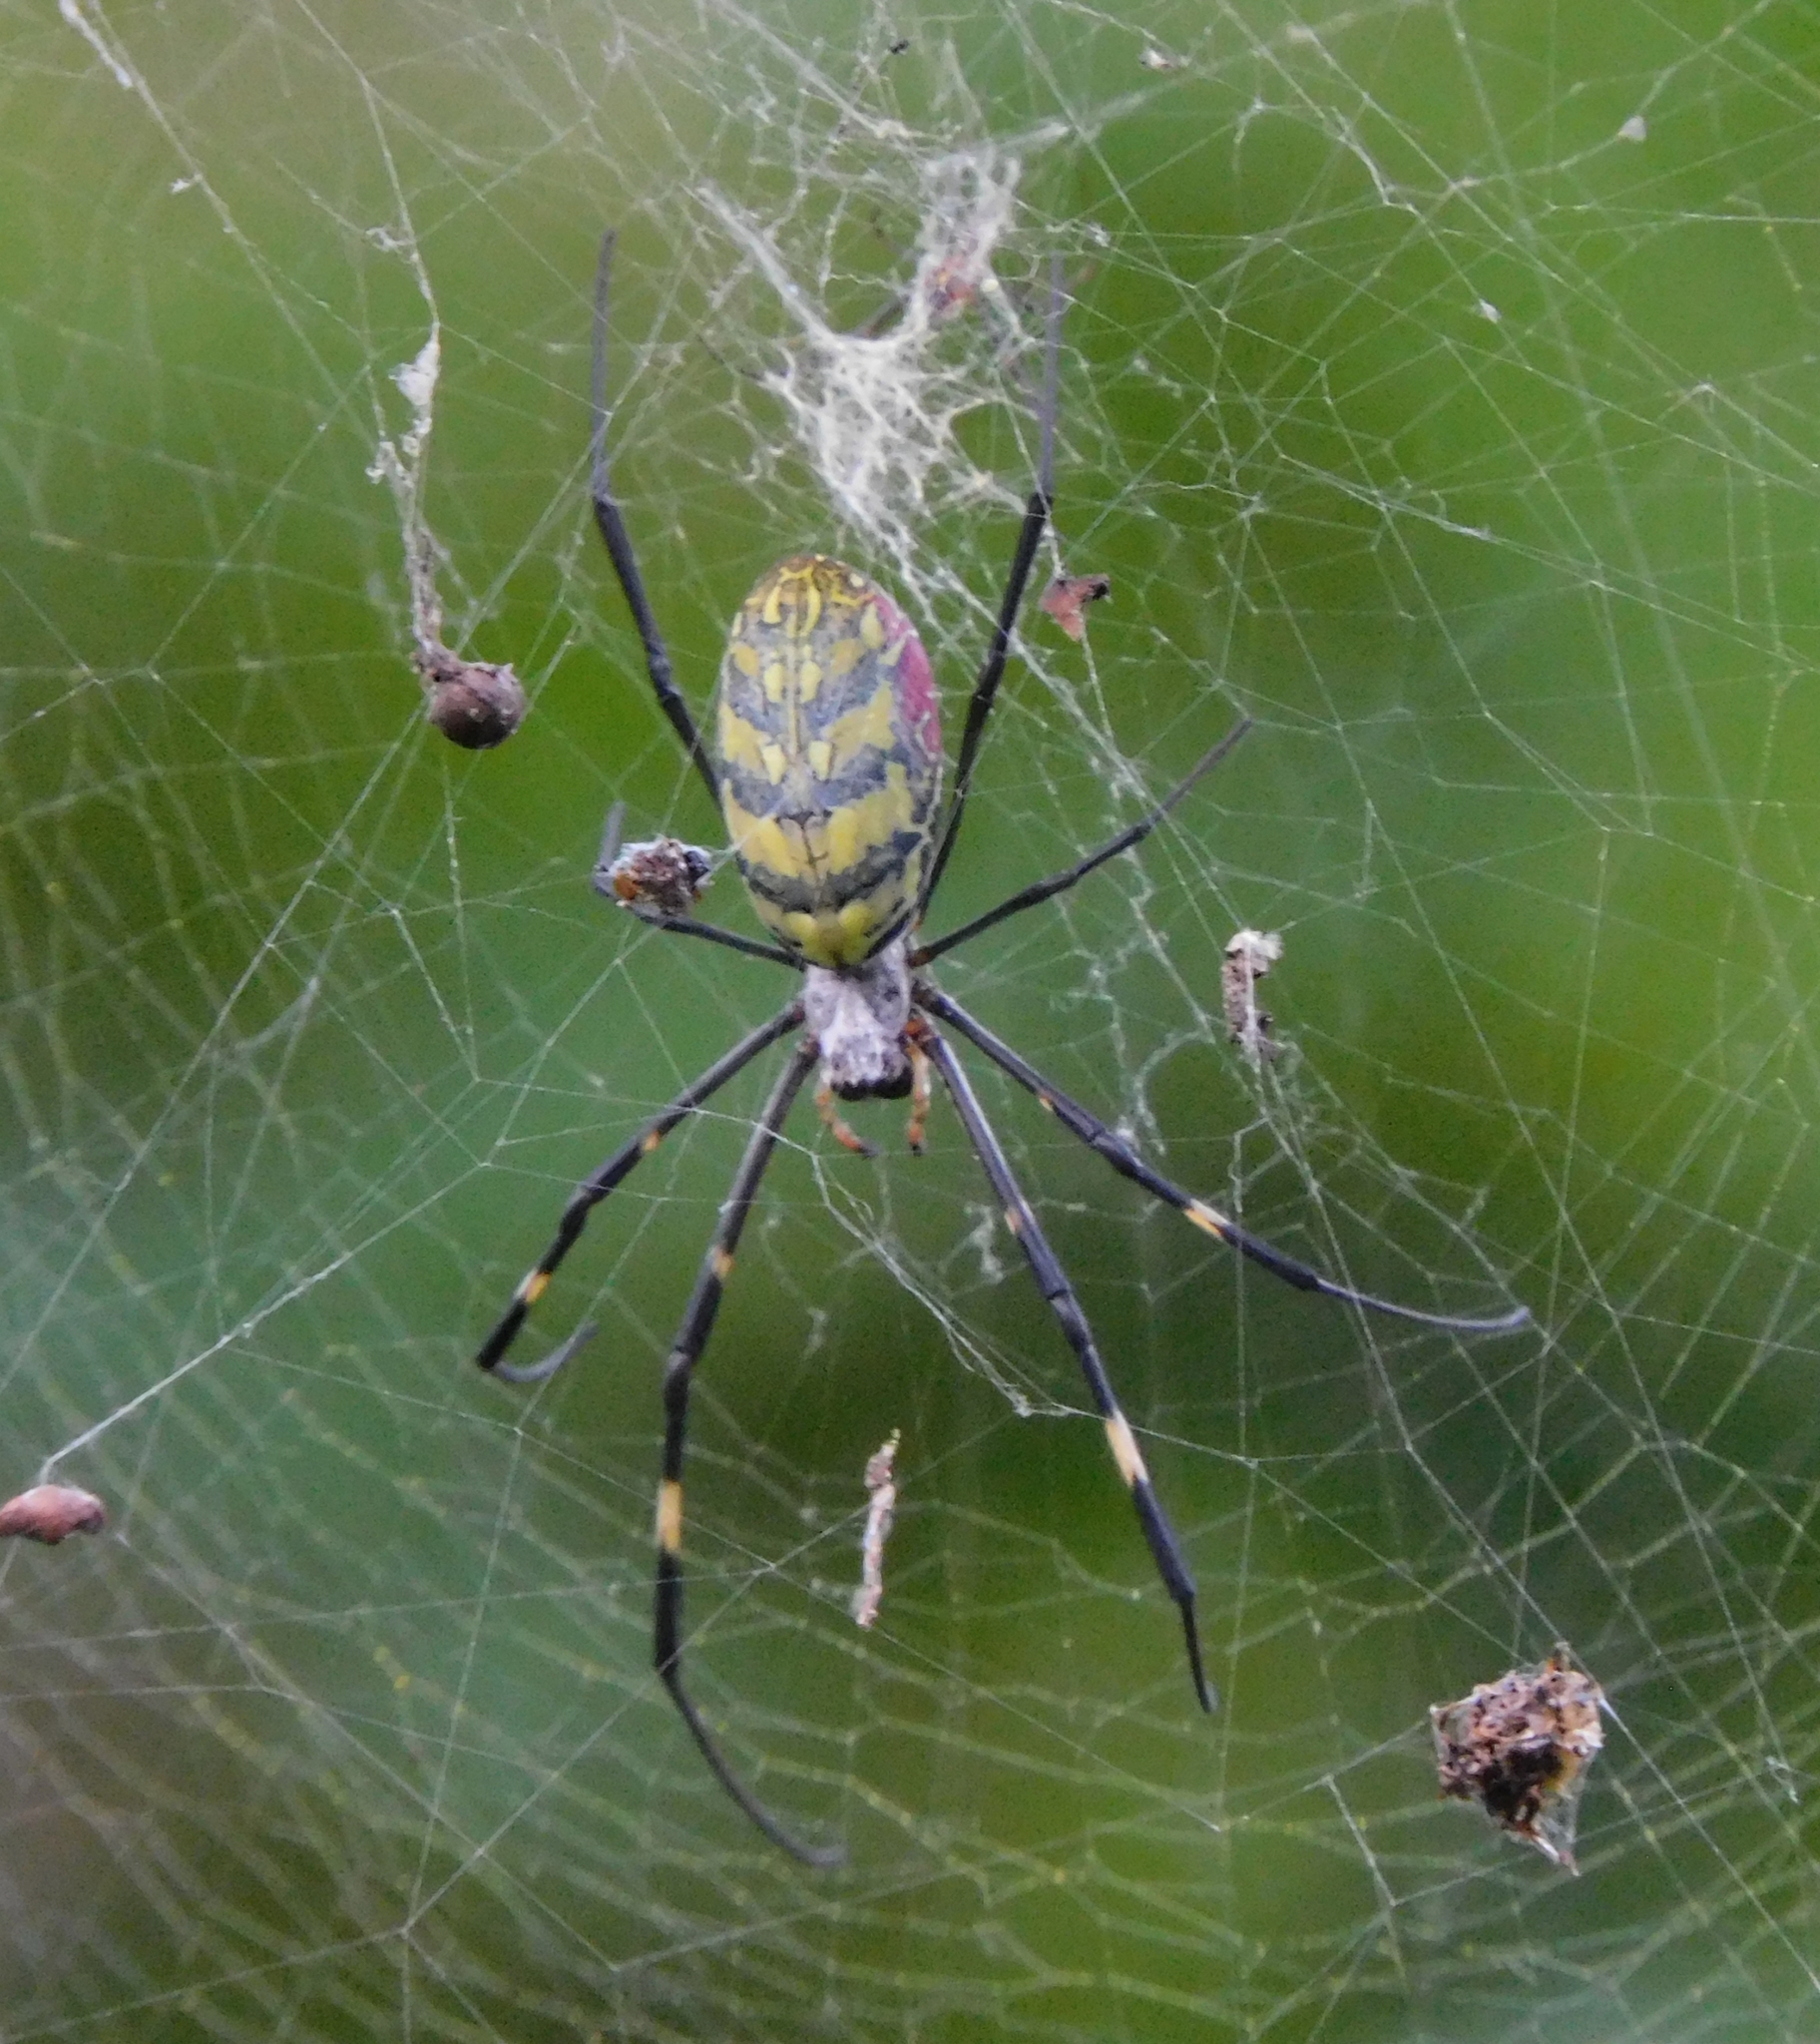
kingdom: Animalia
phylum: Arthropoda
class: Arachnida
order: Araneae
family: Araneidae
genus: Trichonephila
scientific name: Trichonephila clavata
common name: Jorō spider
